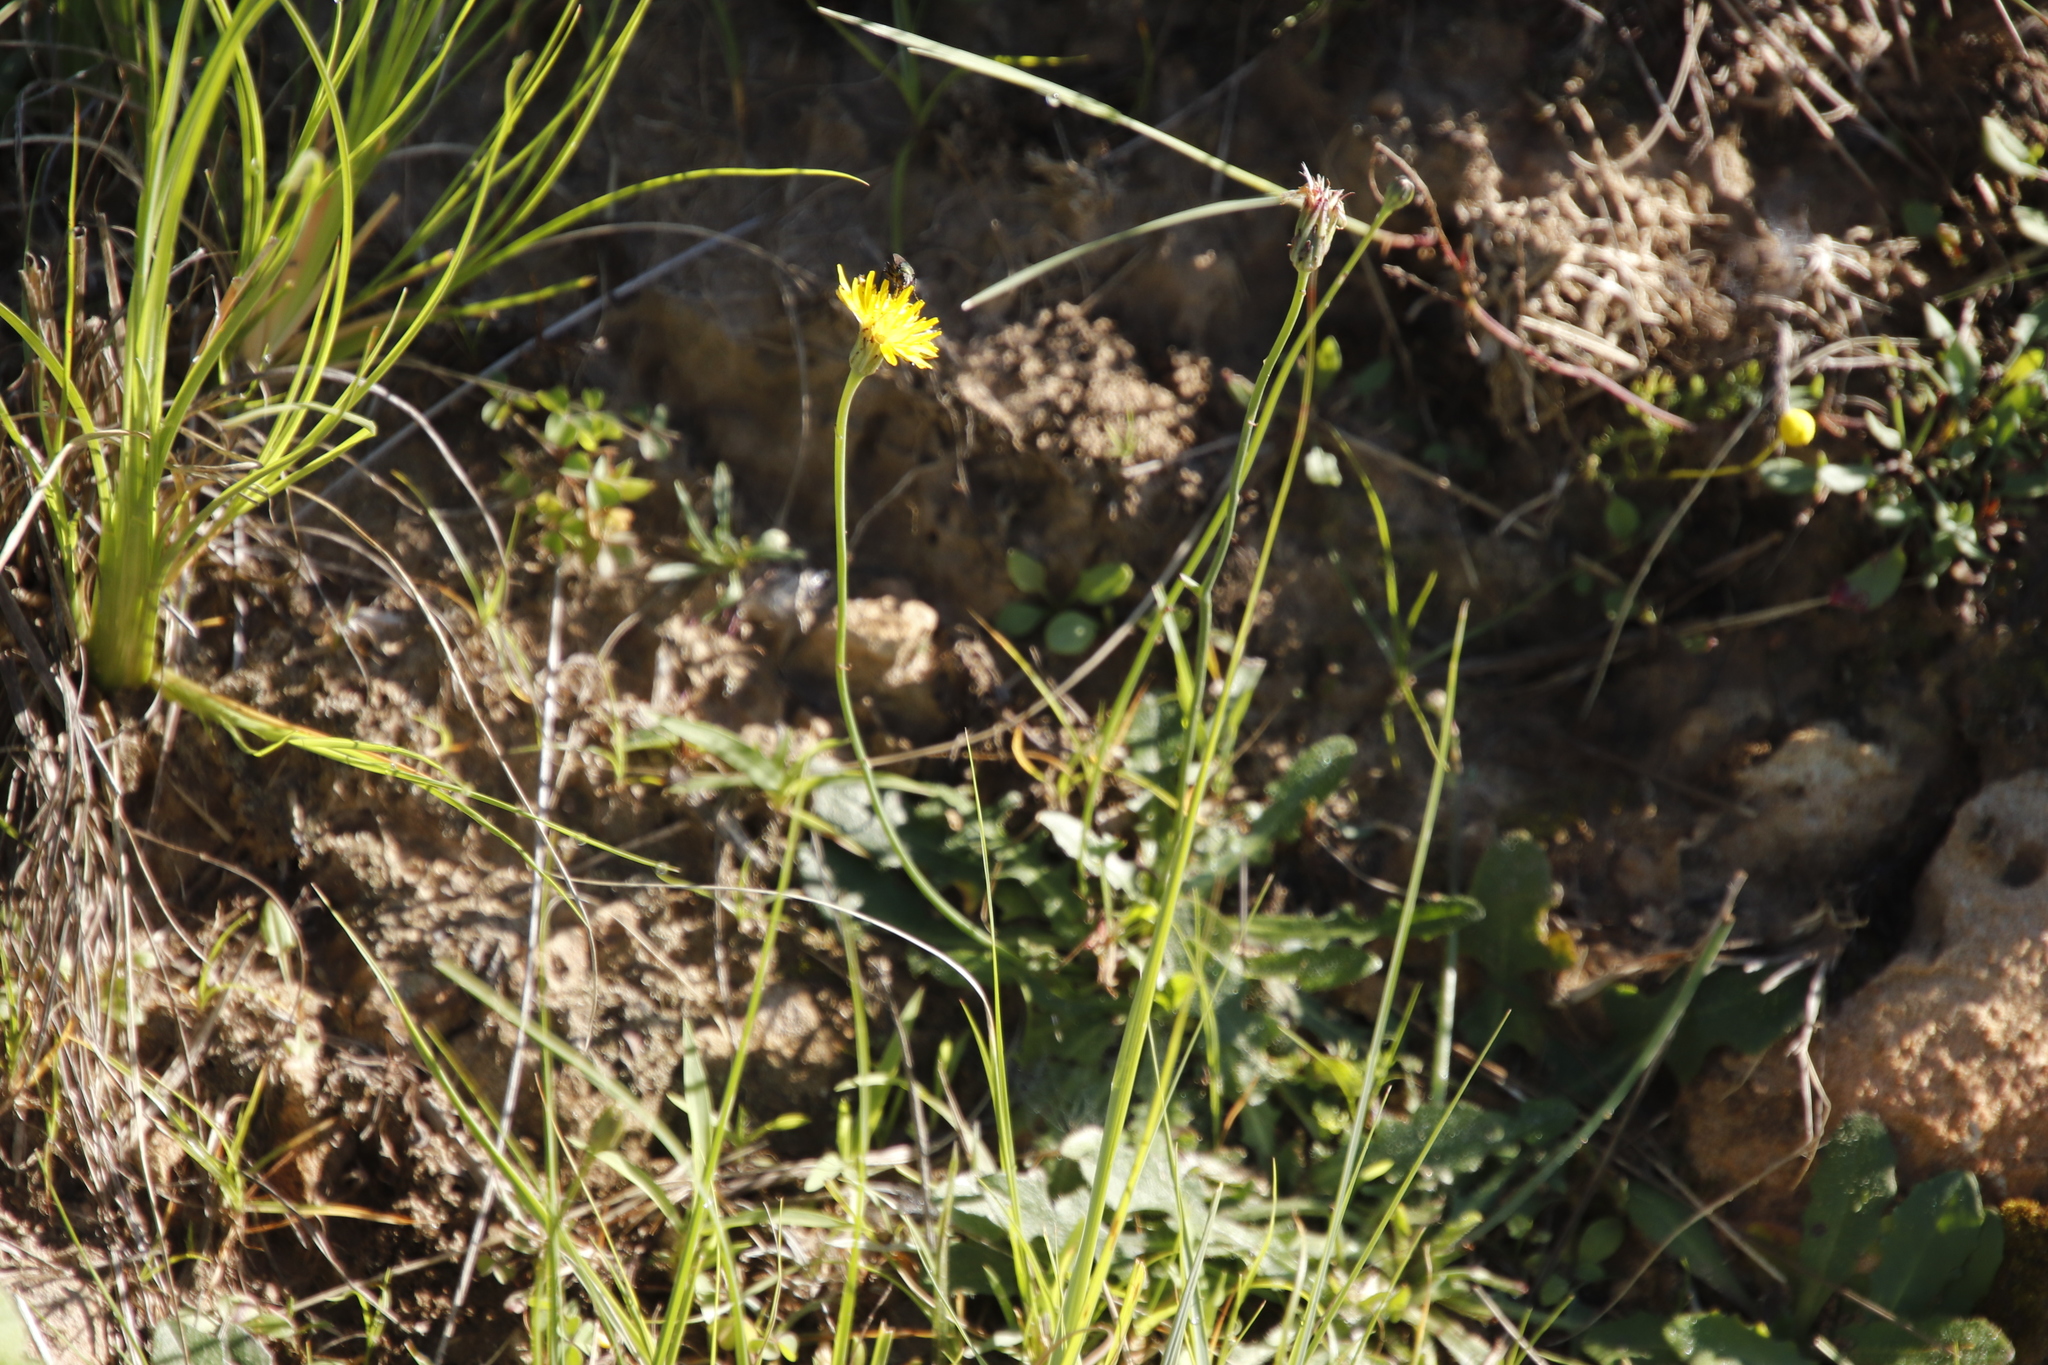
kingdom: Plantae
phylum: Tracheophyta
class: Magnoliopsida
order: Asterales
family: Asteraceae
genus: Hypochaeris
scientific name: Hypochaeris radicata
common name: Flatweed
